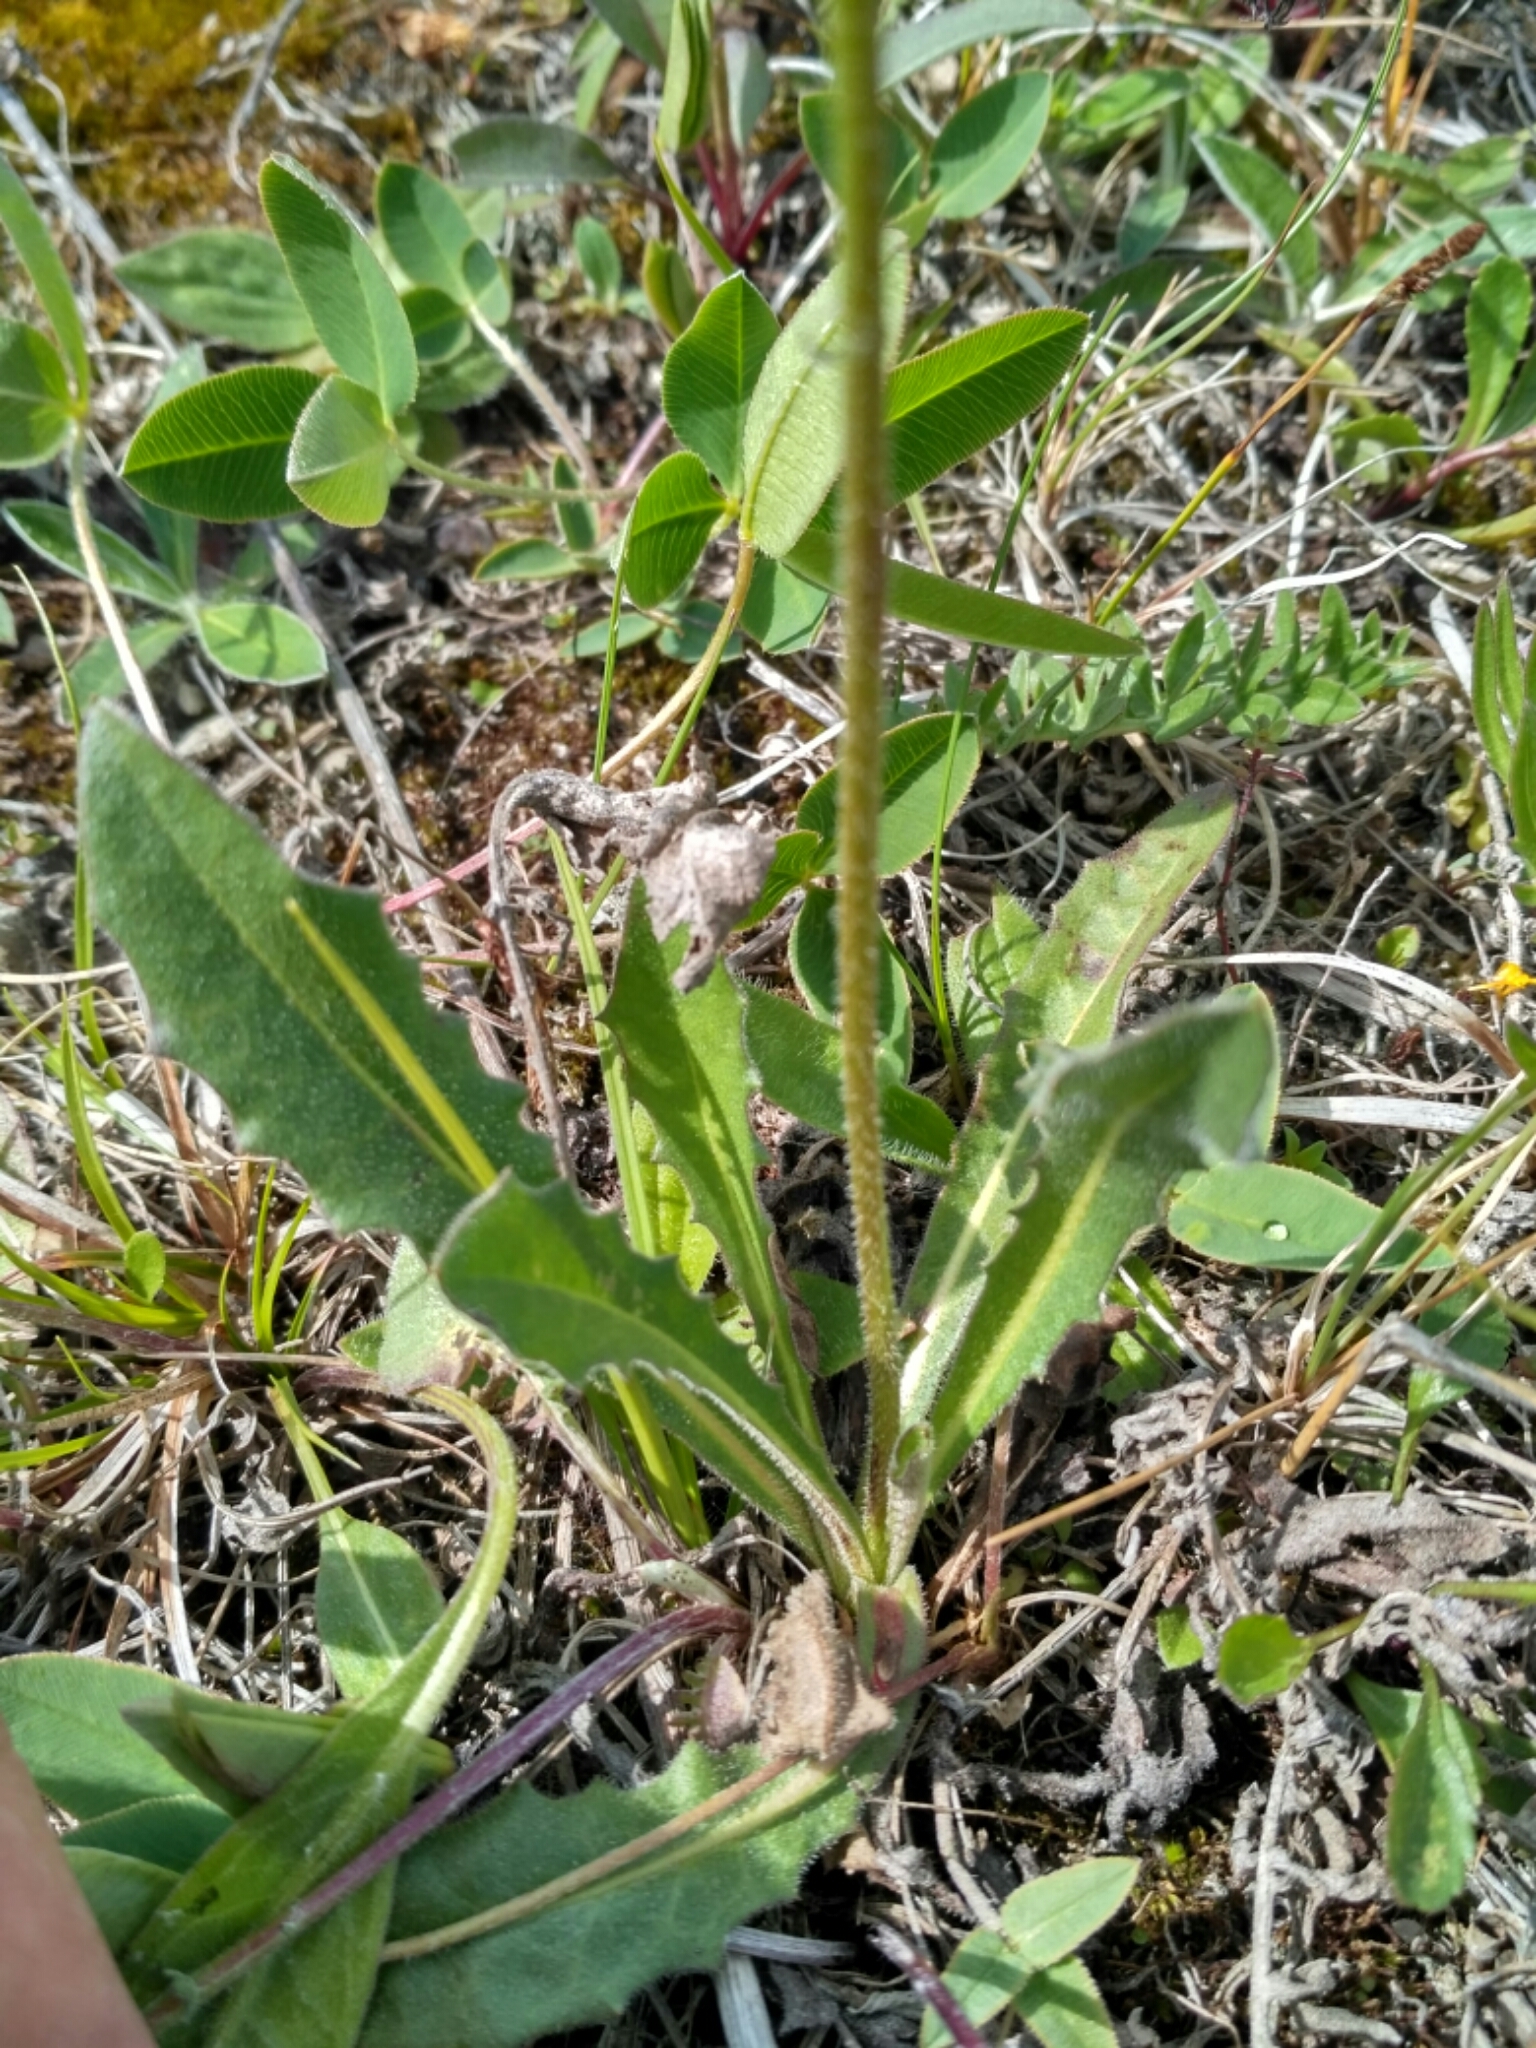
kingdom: Plantae
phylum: Tracheophyta
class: Magnoliopsida
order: Asterales
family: Asteraceae
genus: Leontodon
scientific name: Leontodon hispidus
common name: Rough hawkbit
